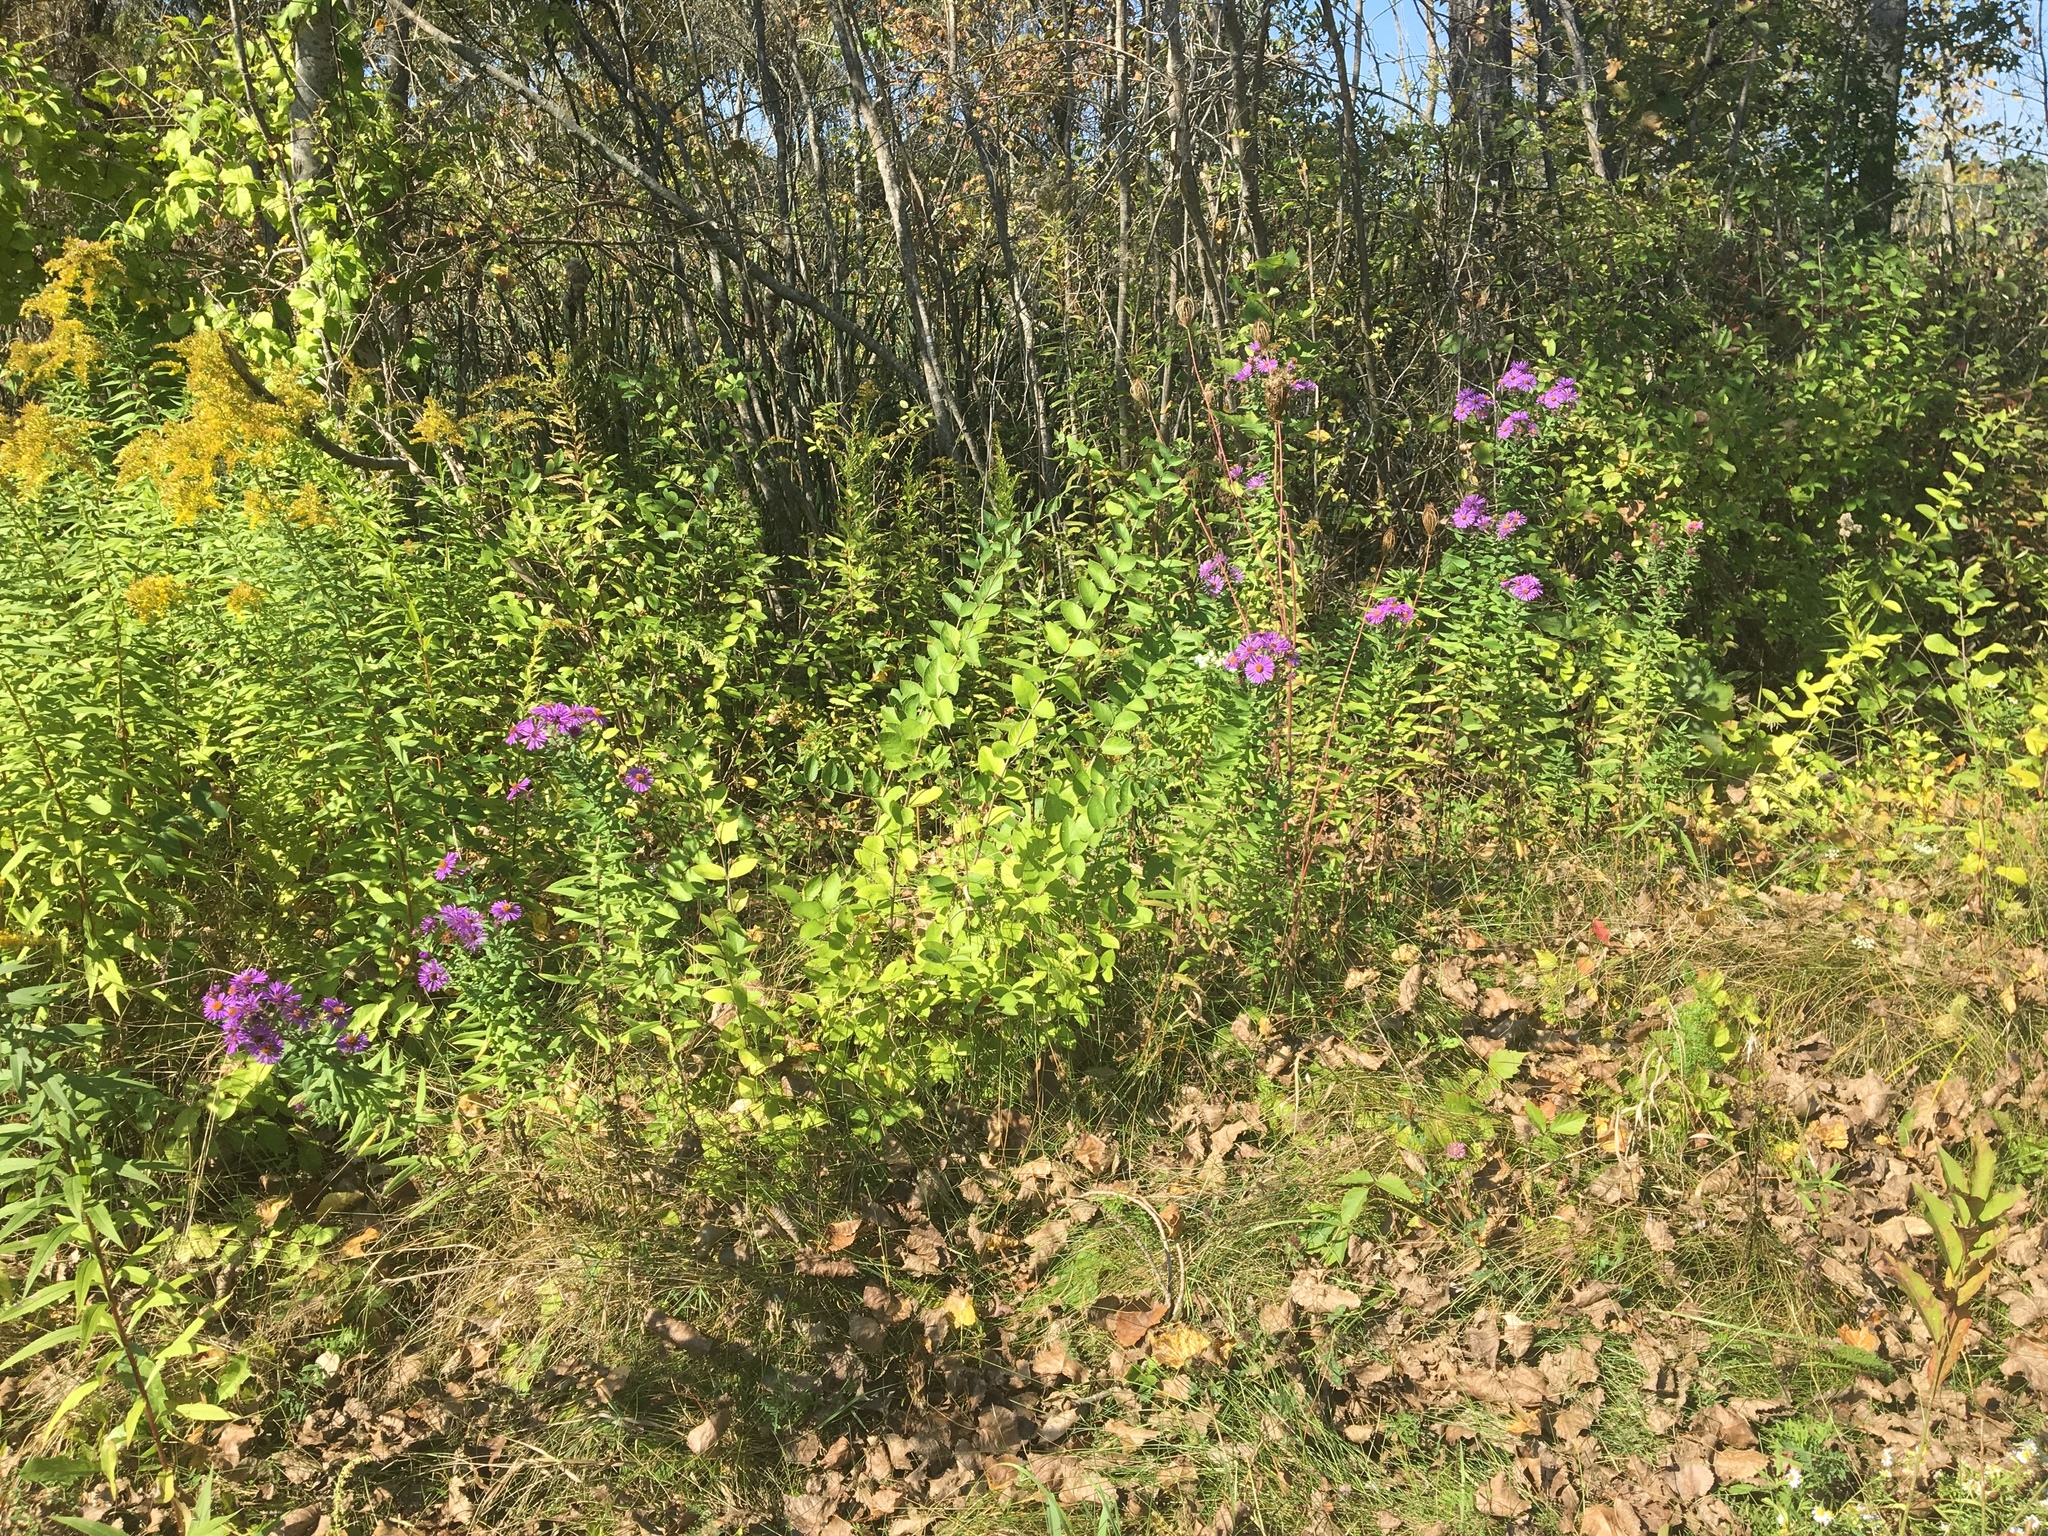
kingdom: Plantae
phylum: Tracheophyta
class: Magnoliopsida
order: Asterales
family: Asteraceae
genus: Symphyotrichum
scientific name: Symphyotrichum novae-angliae
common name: Michaelmas daisy
